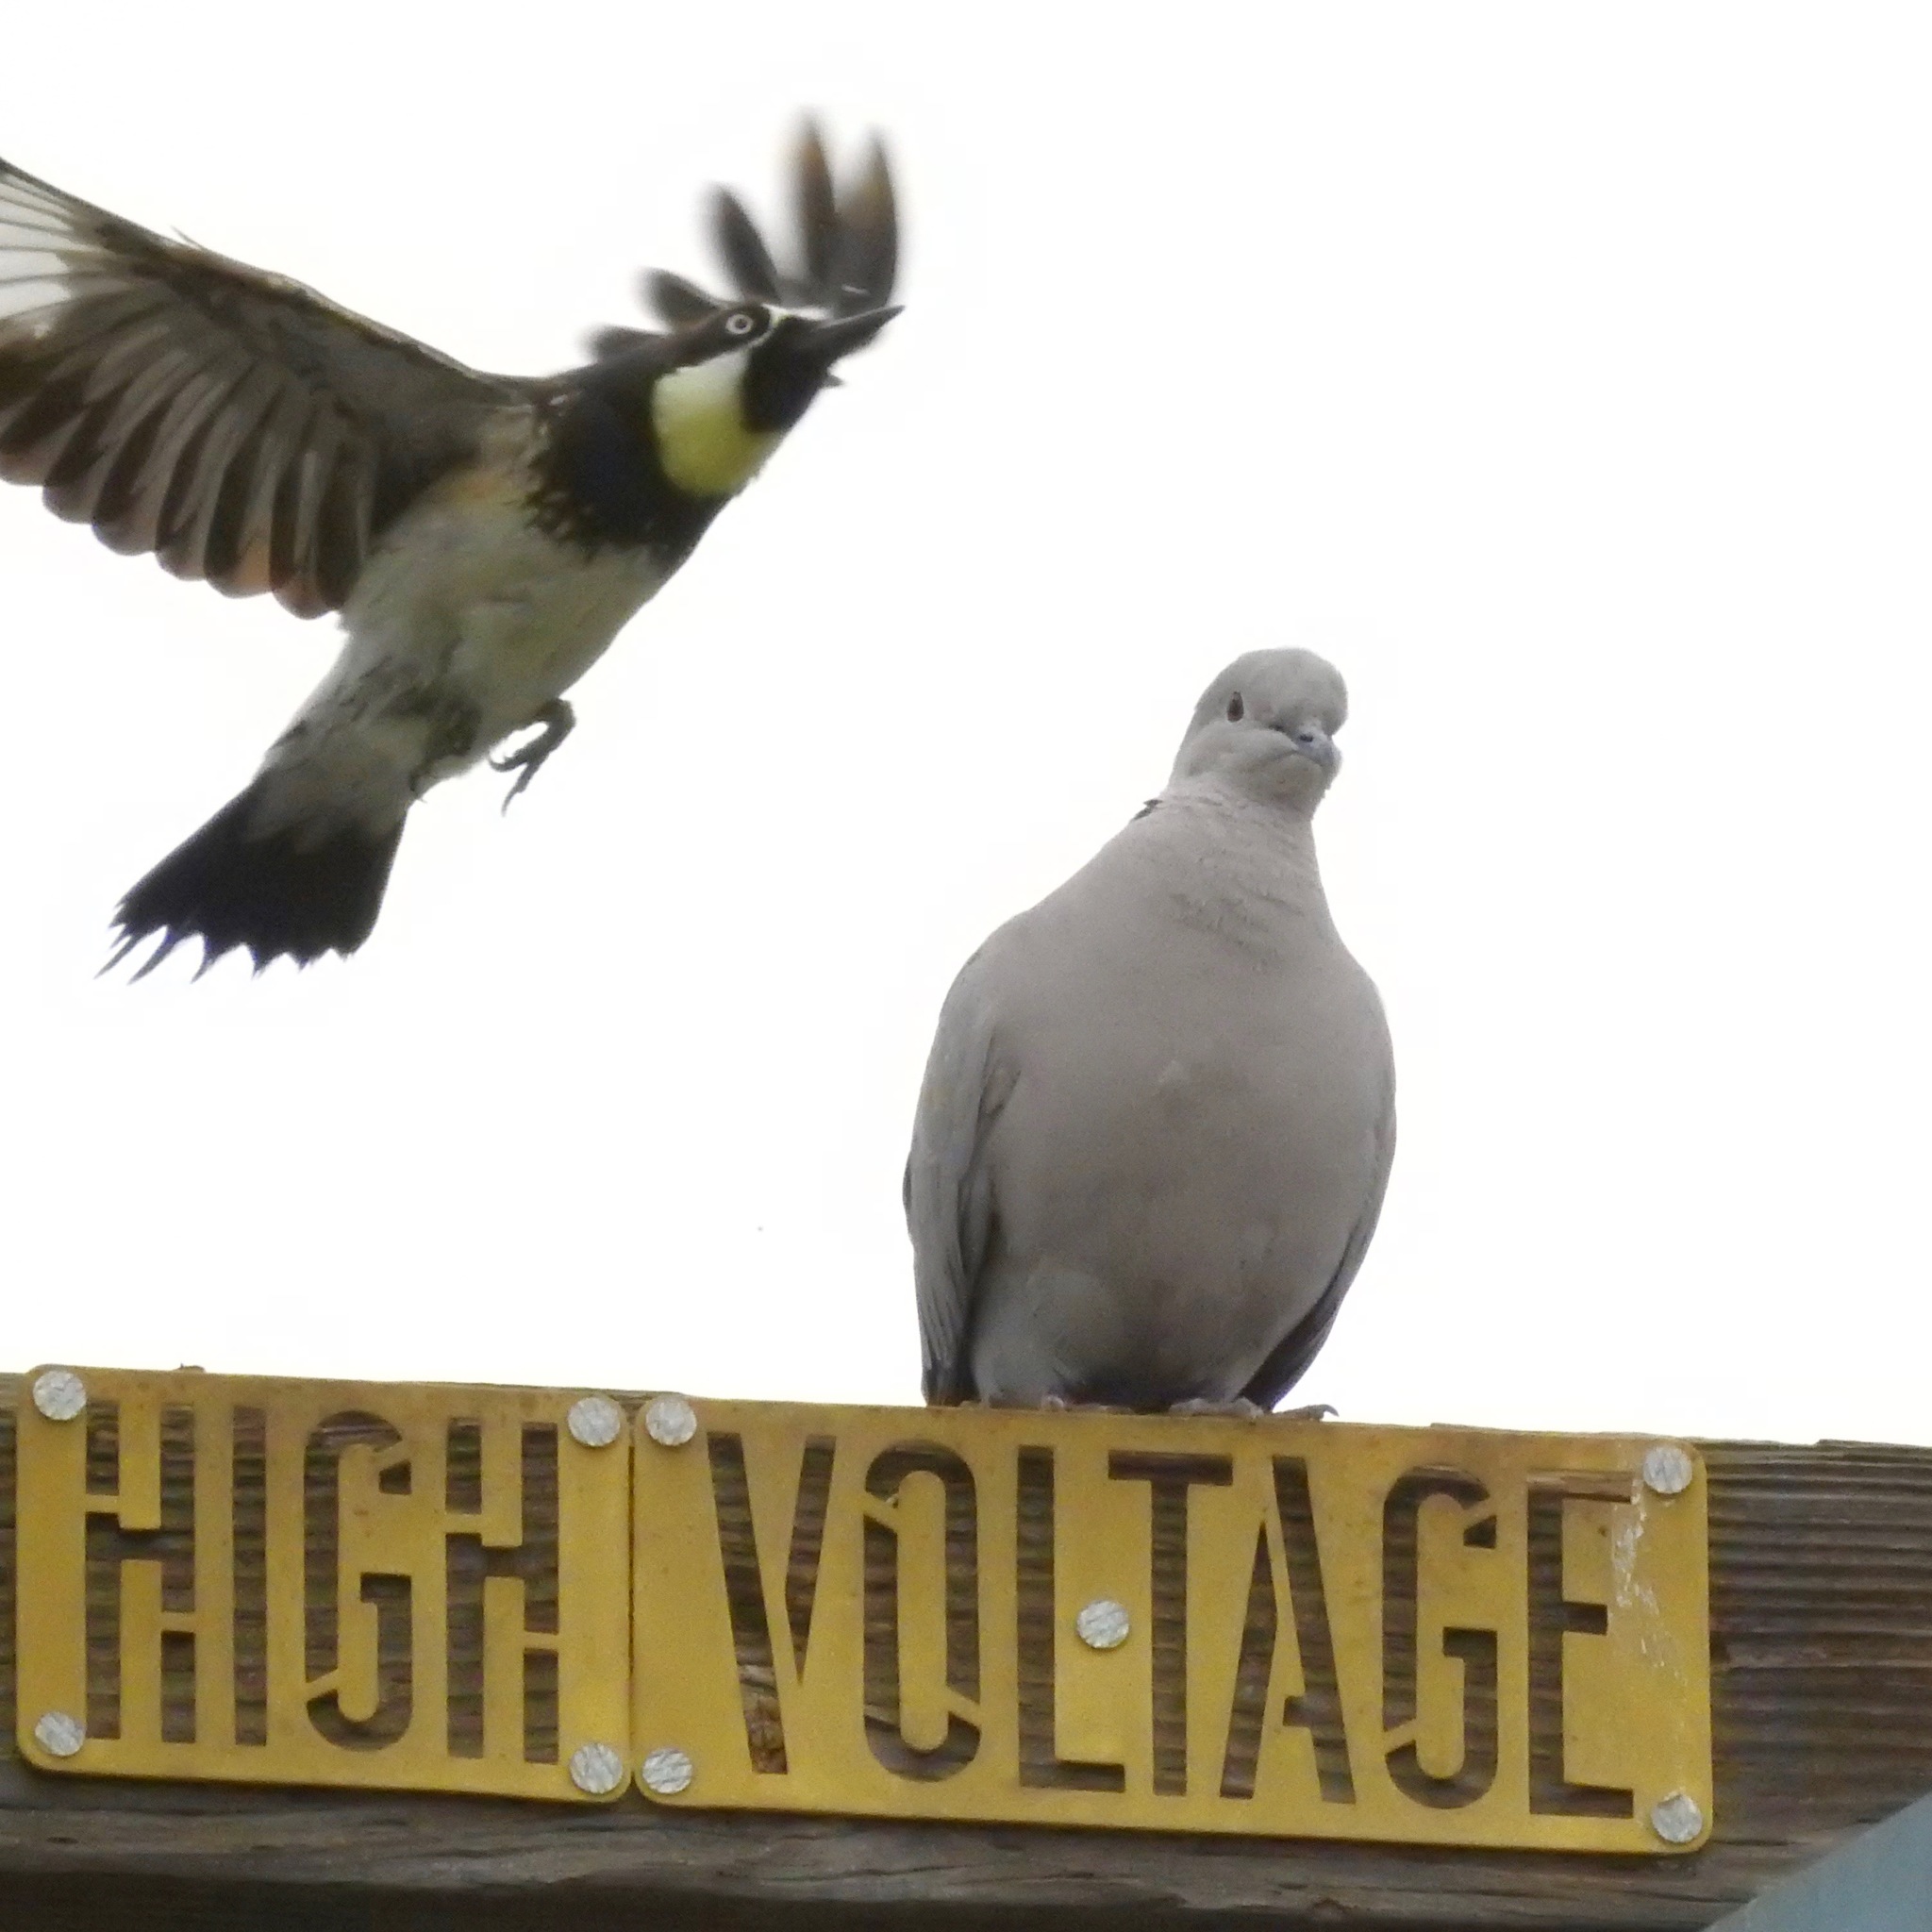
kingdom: Animalia
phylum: Chordata
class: Aves
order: Columbiformes
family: Columbidae
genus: Streptopelia
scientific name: Streptopelia decaocto
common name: Eurasian collared dove
